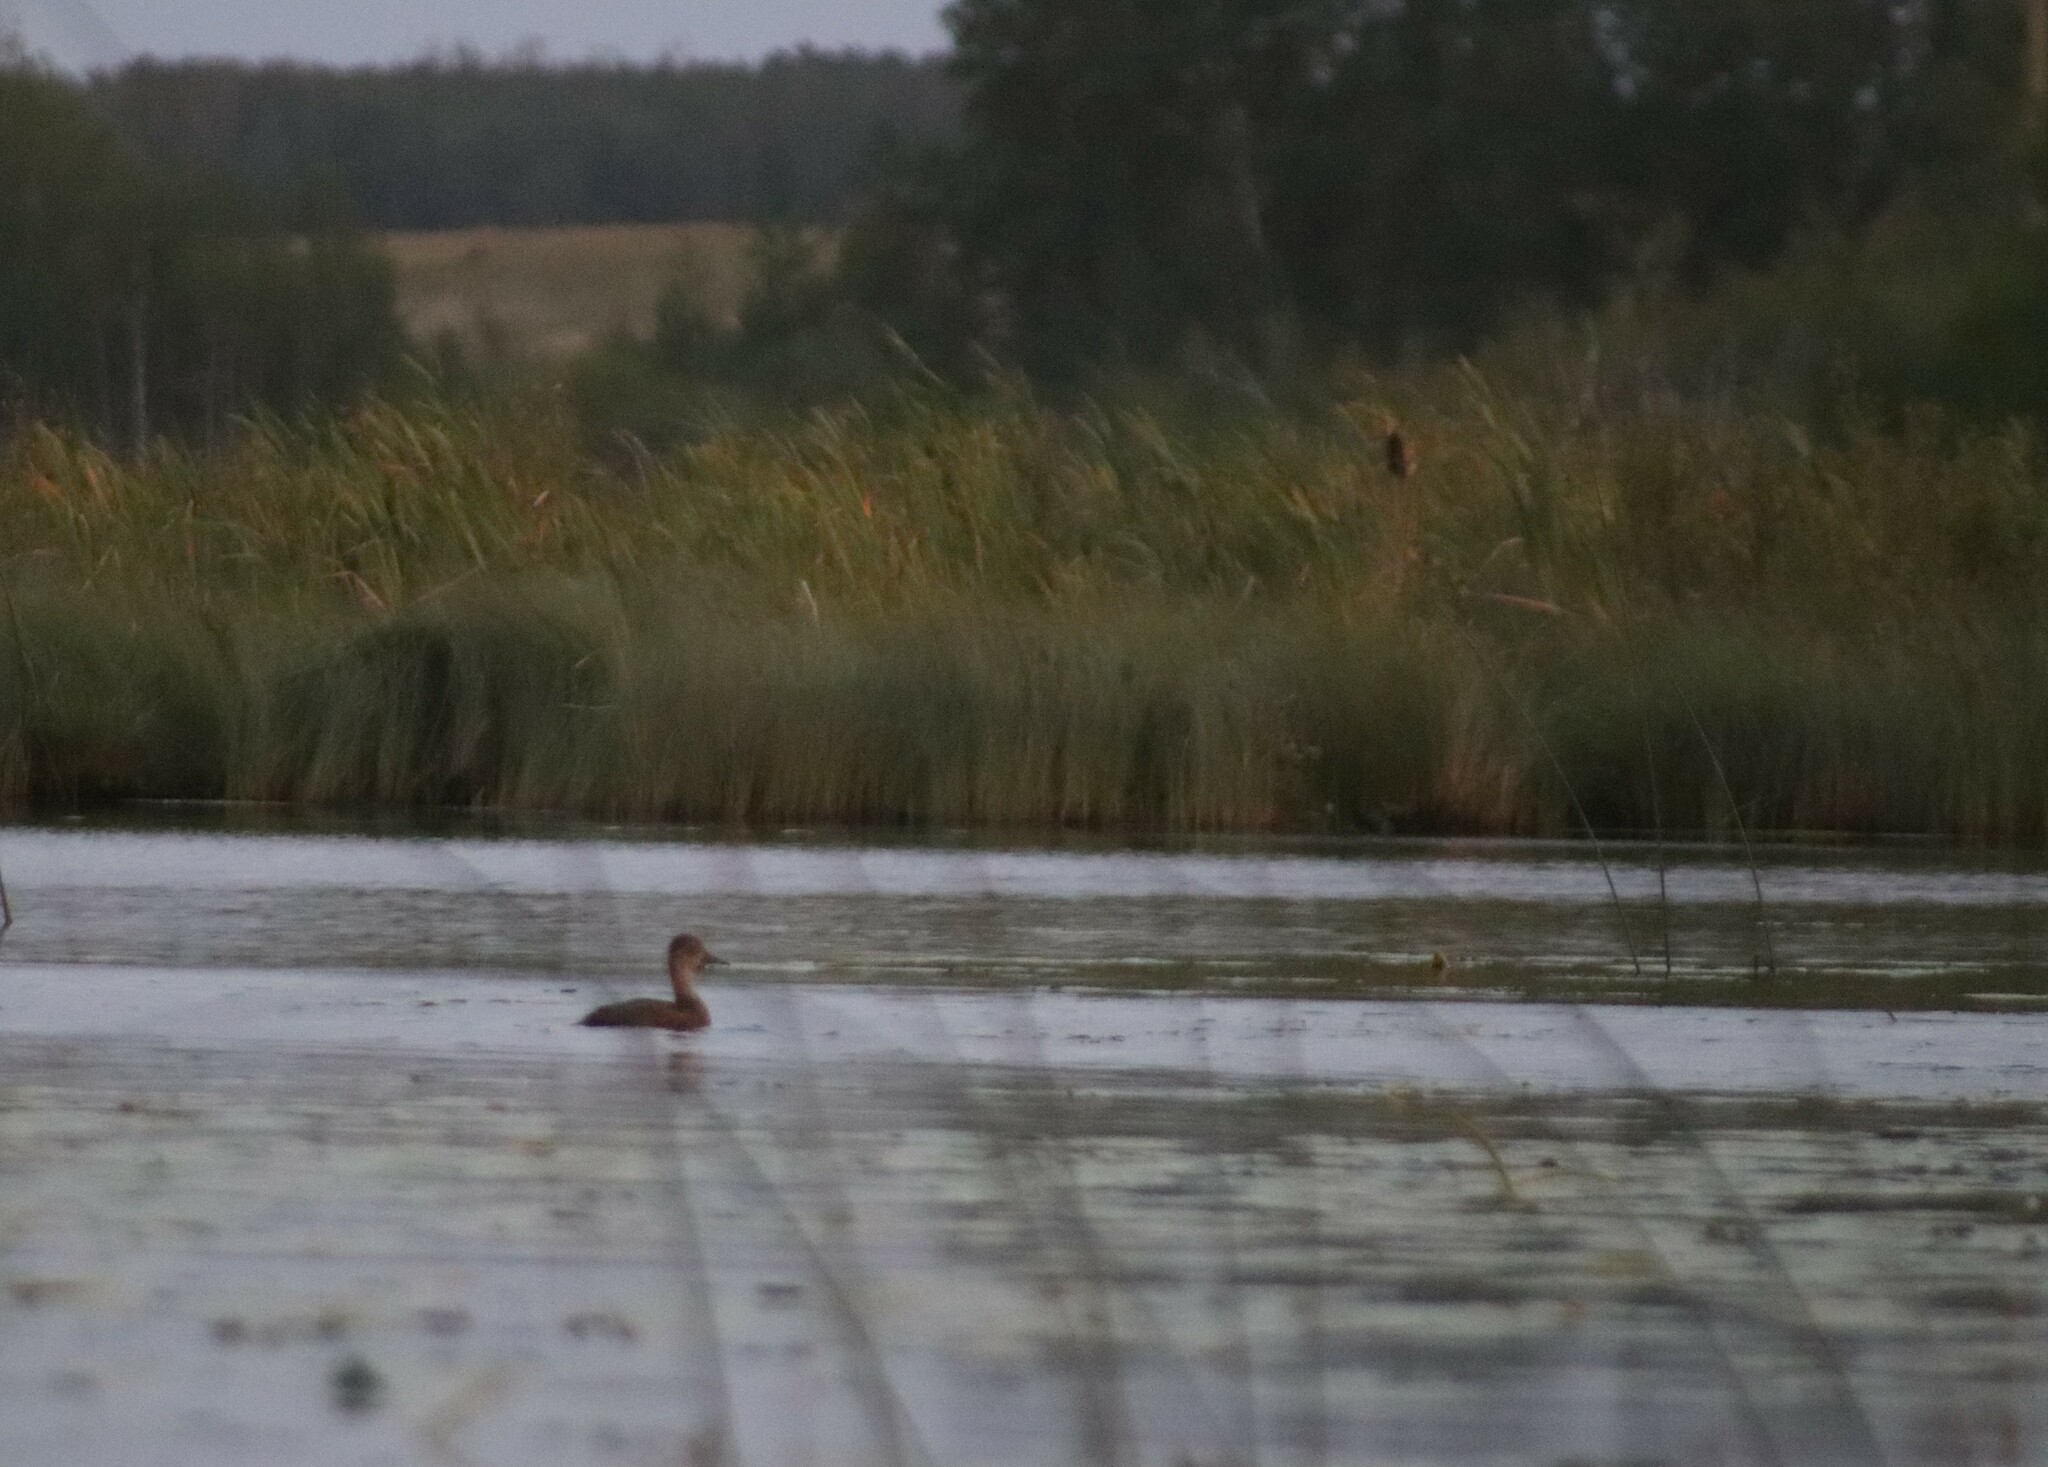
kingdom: Animalia
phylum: Chordata
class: Aves
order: Anseriformes
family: Anatidae
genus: Aythya
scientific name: Aythya collaris
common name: Ring-necked duck
